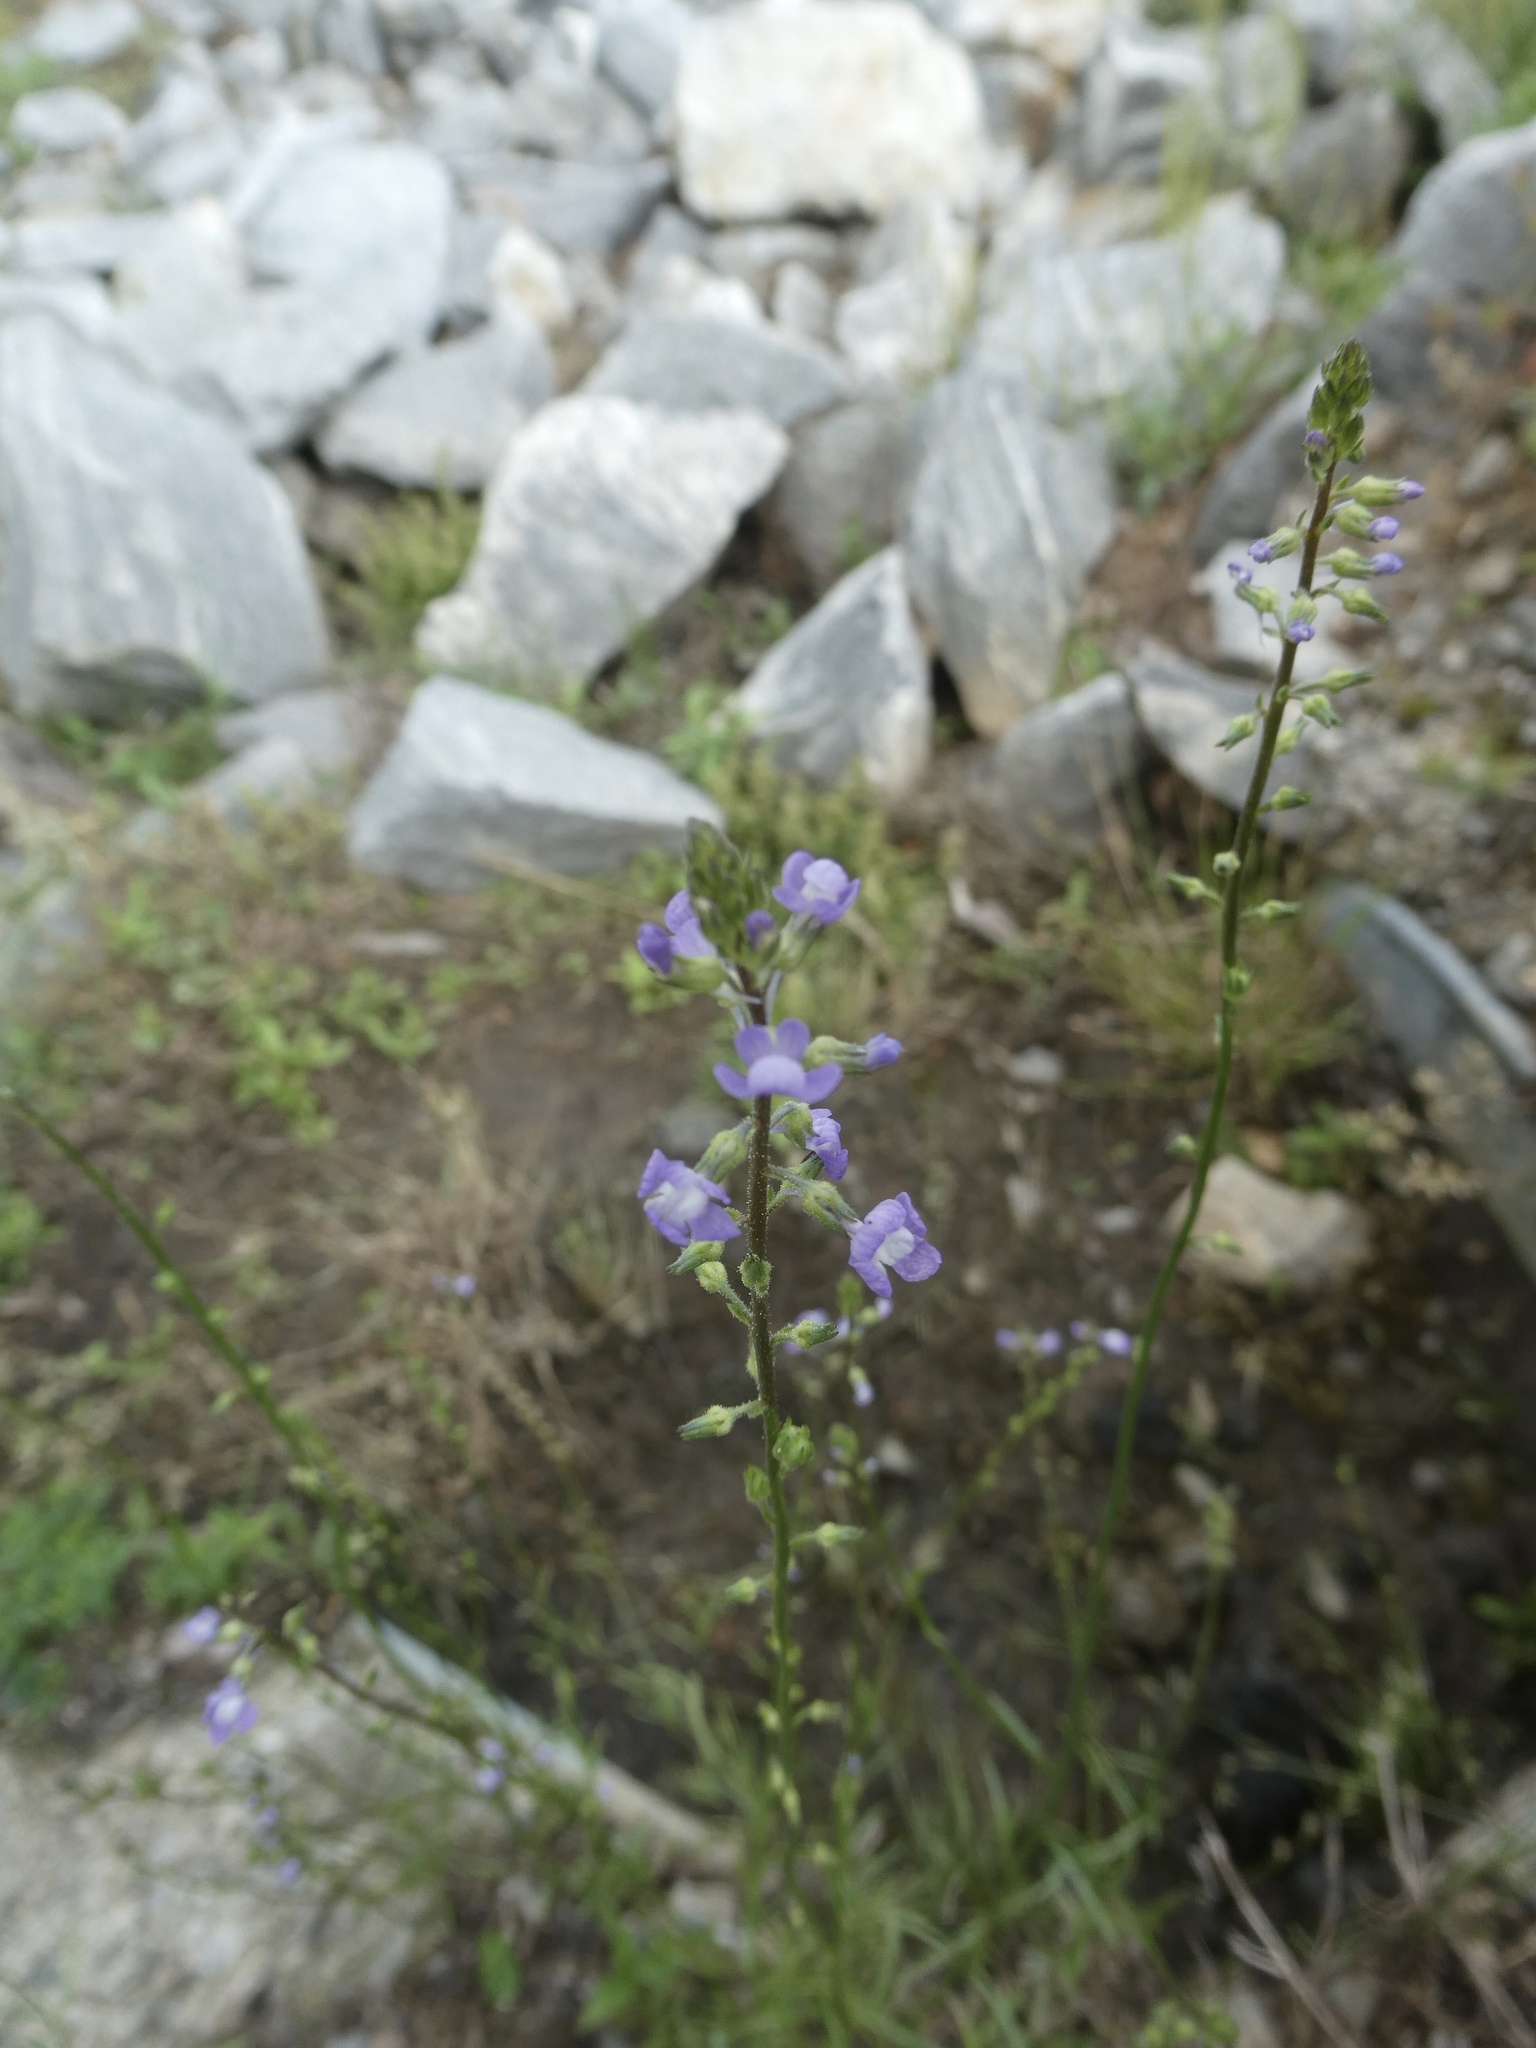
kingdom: Plantae
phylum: Tracheophyta
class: Magnoliopsida
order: Lamiales
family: Plantaginaceae
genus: Nuttallanthus
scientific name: Nuttallanthus canadensis
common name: Blue toadflax
